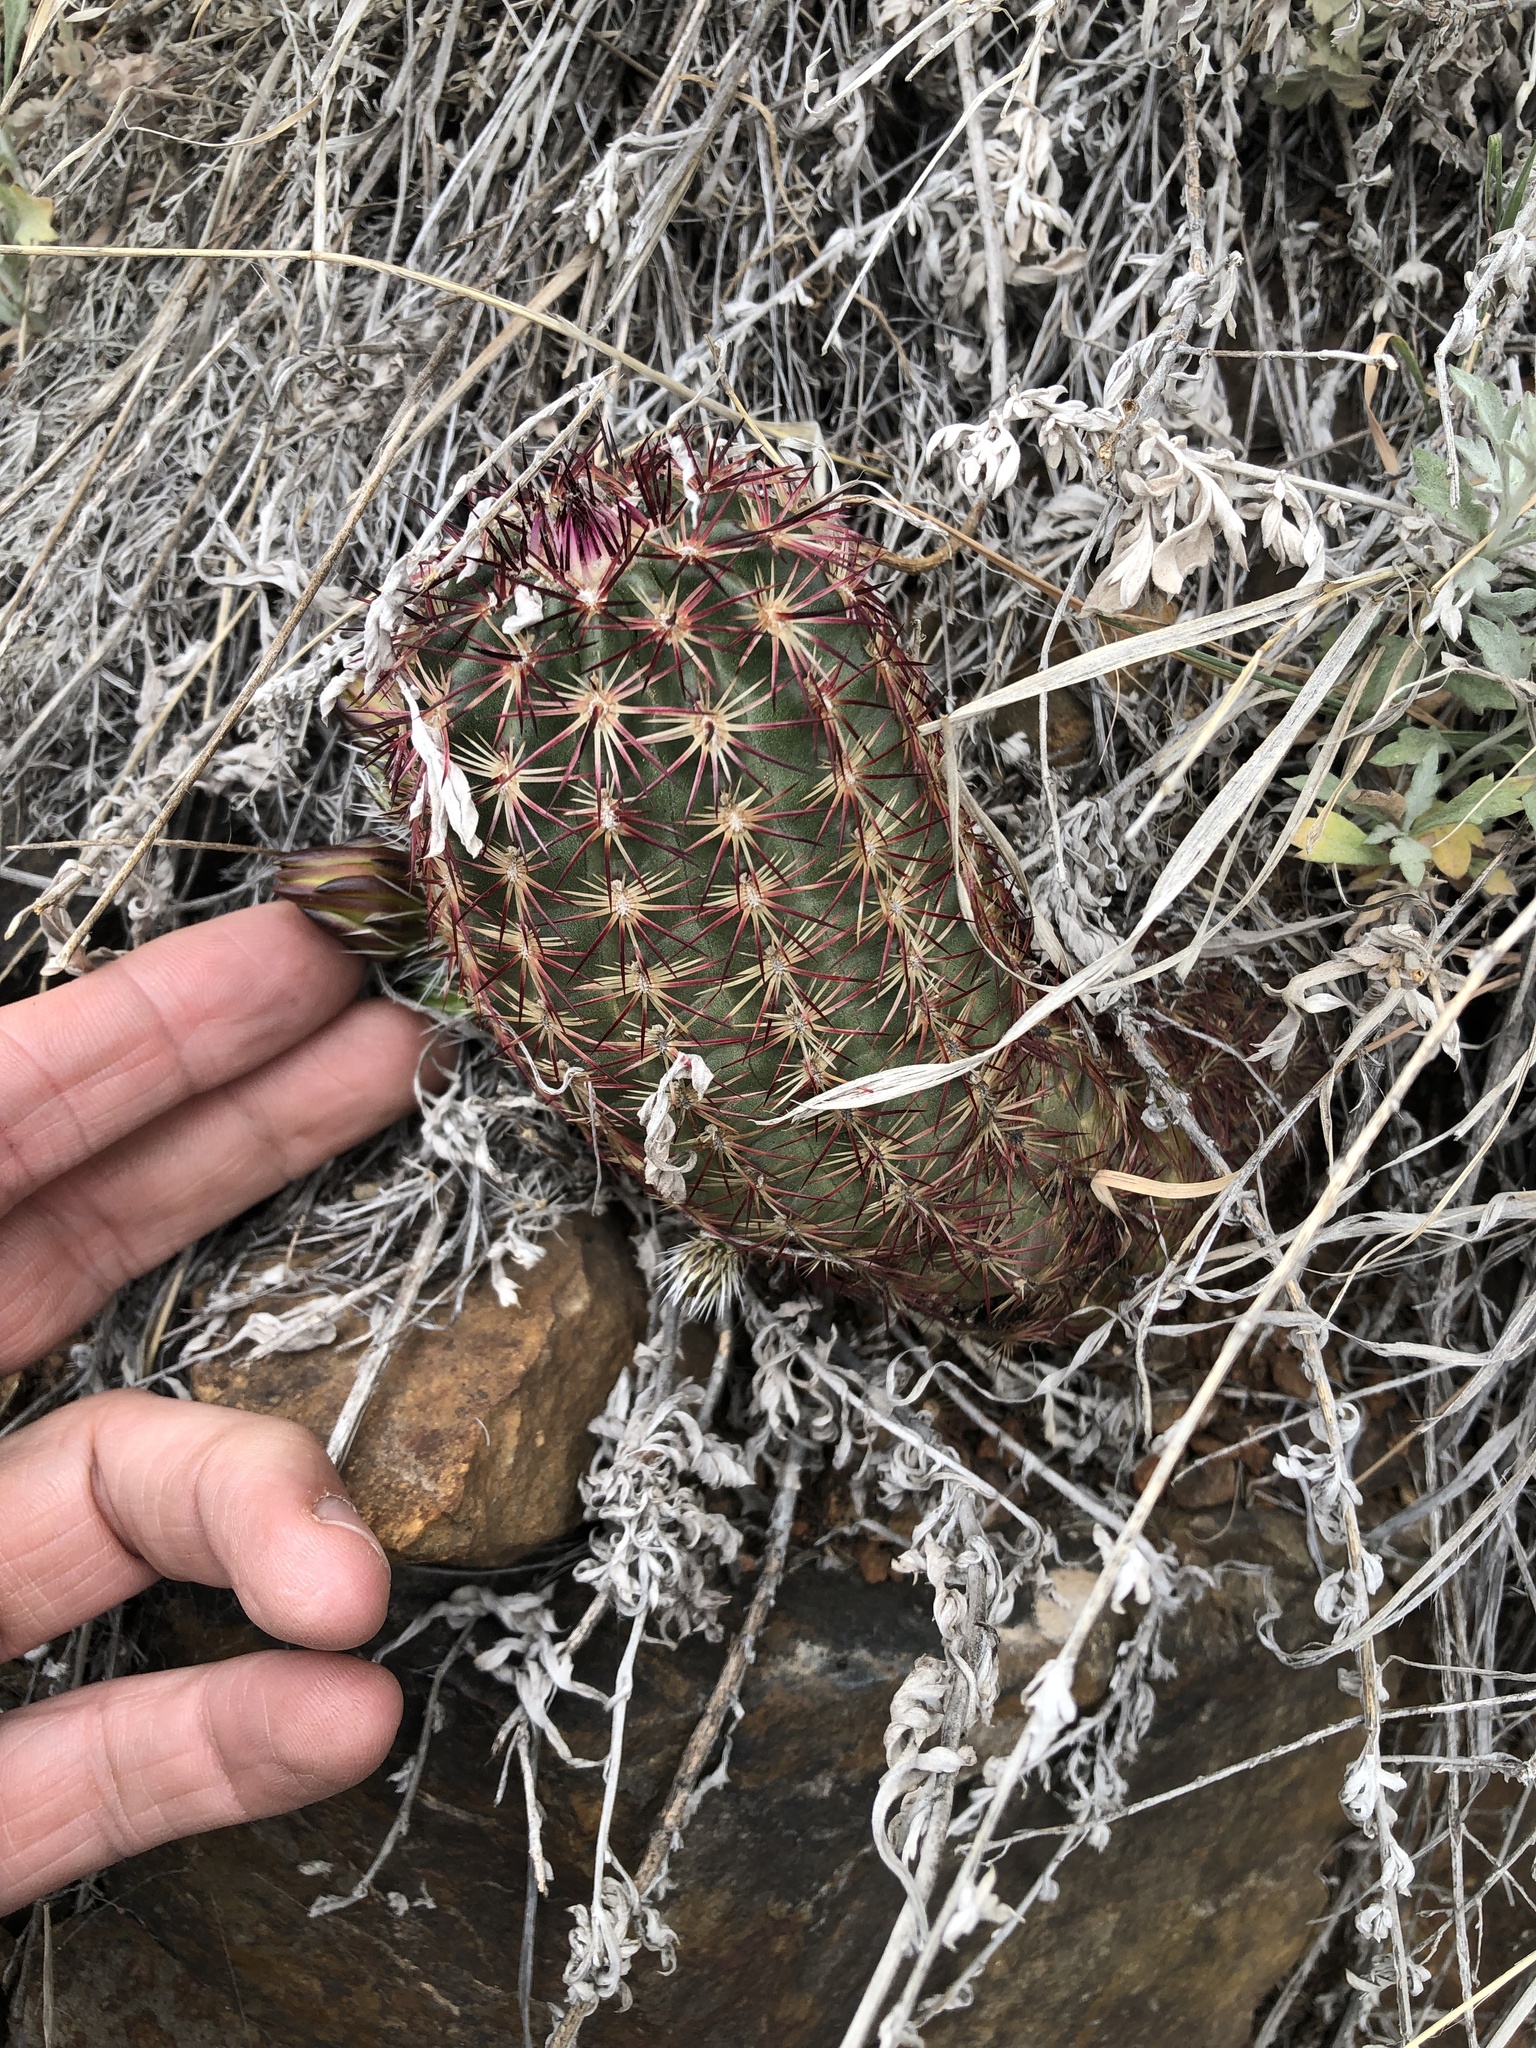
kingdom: Plantae
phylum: Tracheophyta
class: Magnoliopsida
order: Caryophyllales
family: Cactaceae
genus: Echinocereus
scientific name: Echinocereus viridiflorus
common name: Nylon hedgehog cactus
